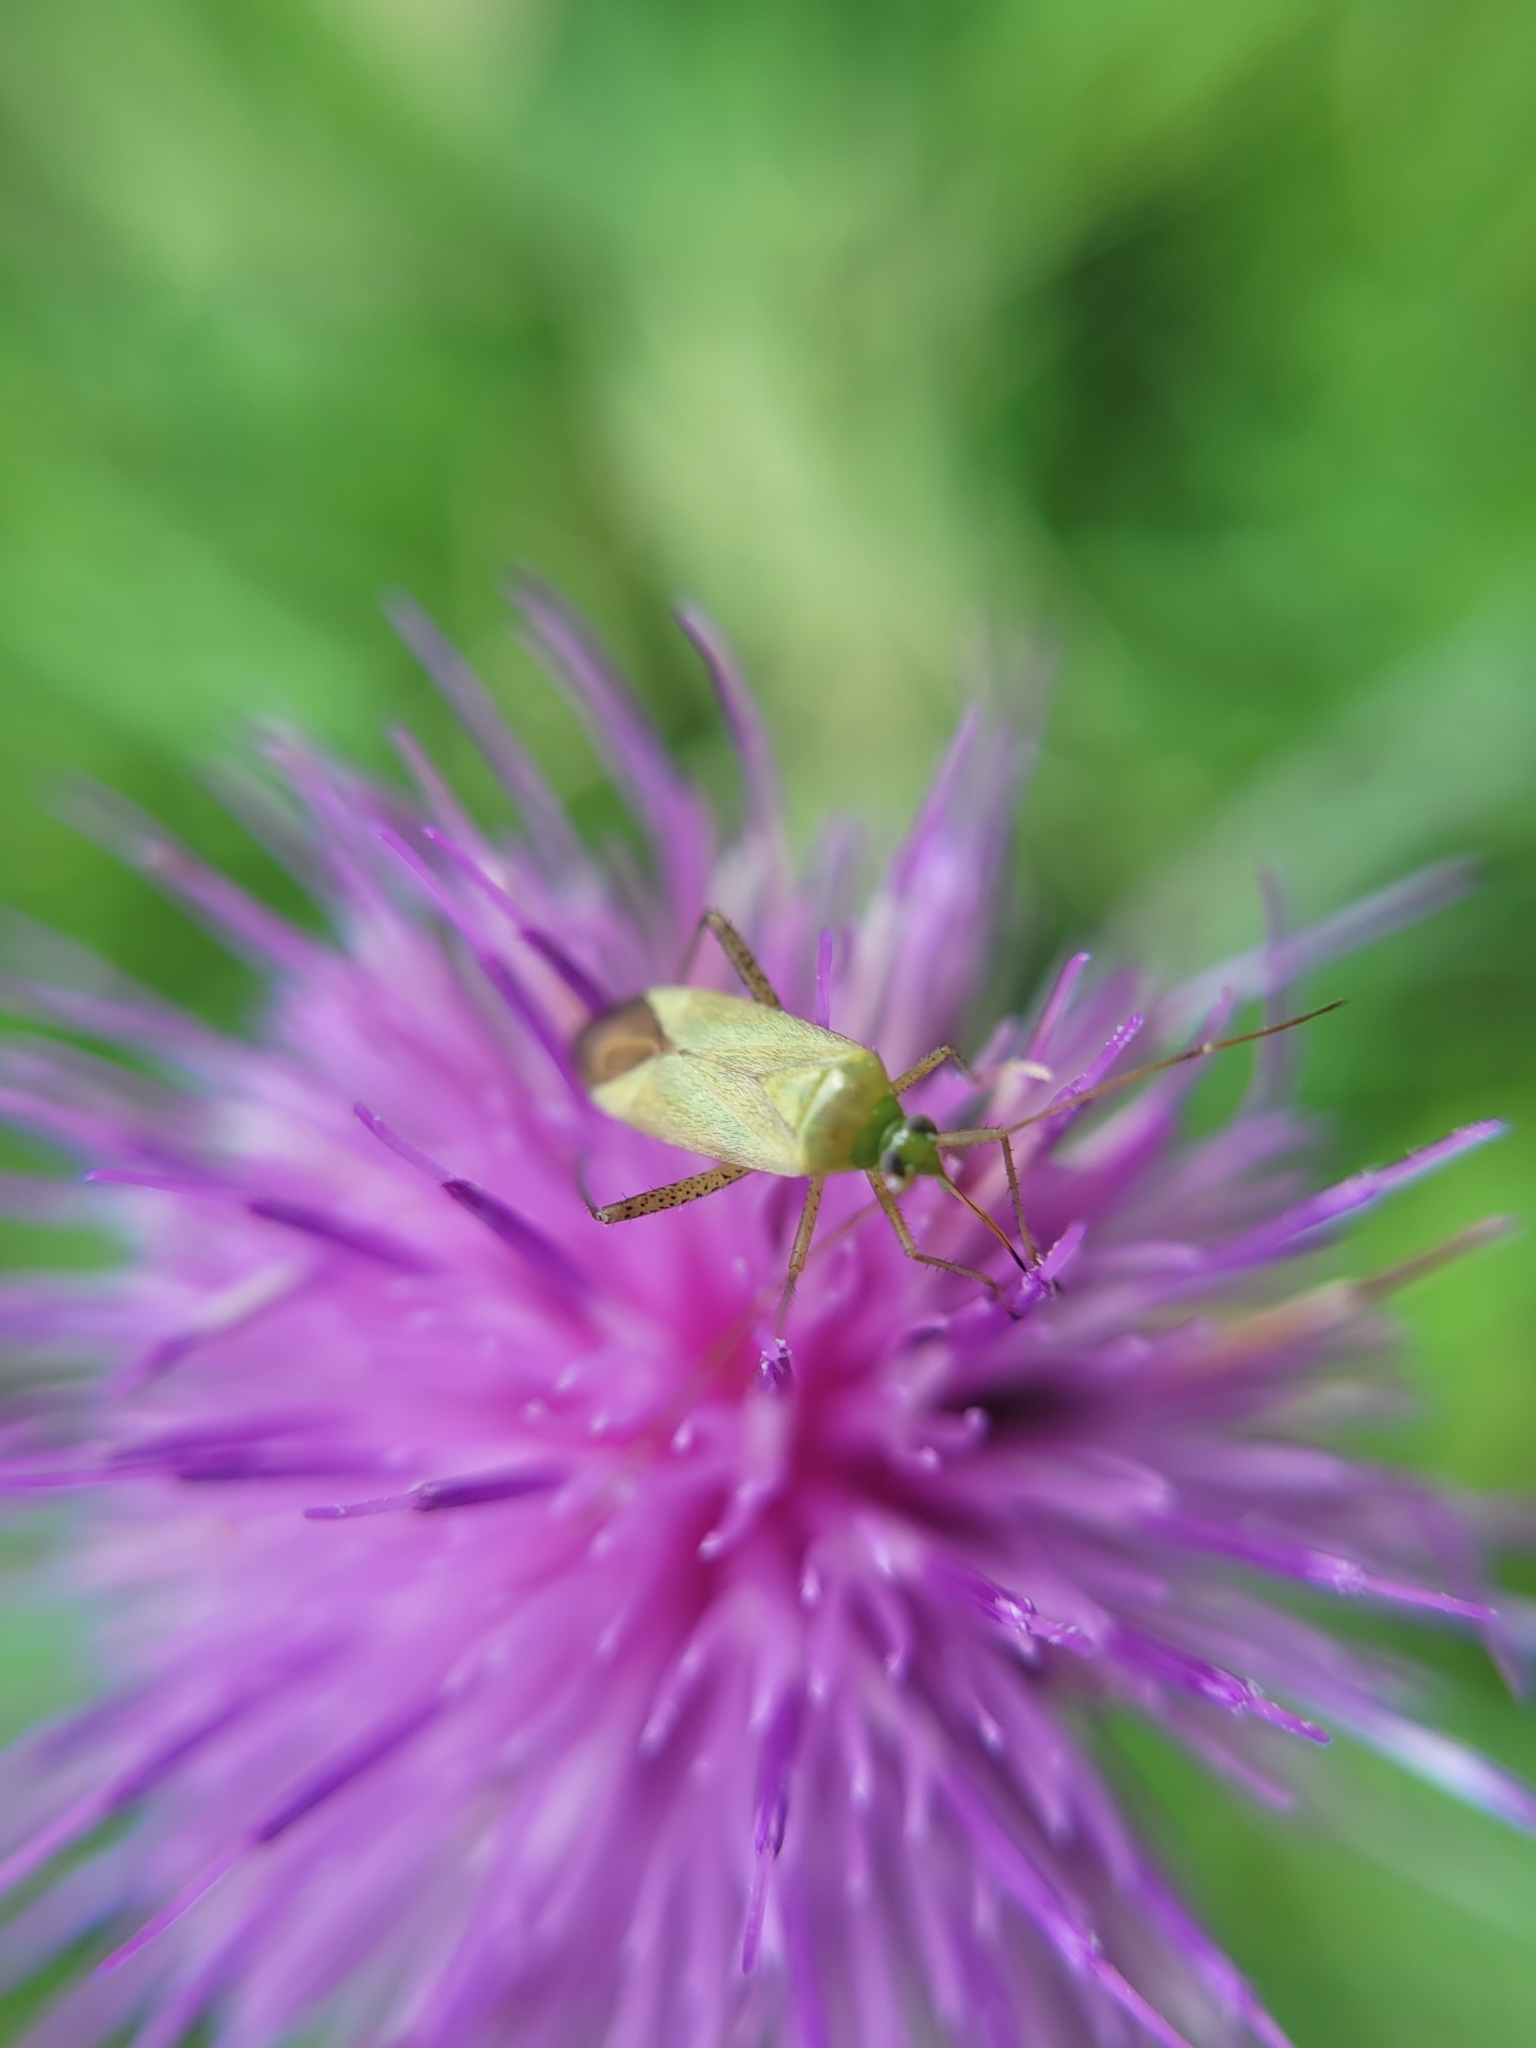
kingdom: Animalia
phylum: Arthropoda
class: Insecta
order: Hemiptera
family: Miridae
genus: Adelphocoris
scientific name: Adelphocoris quadripunctatus
